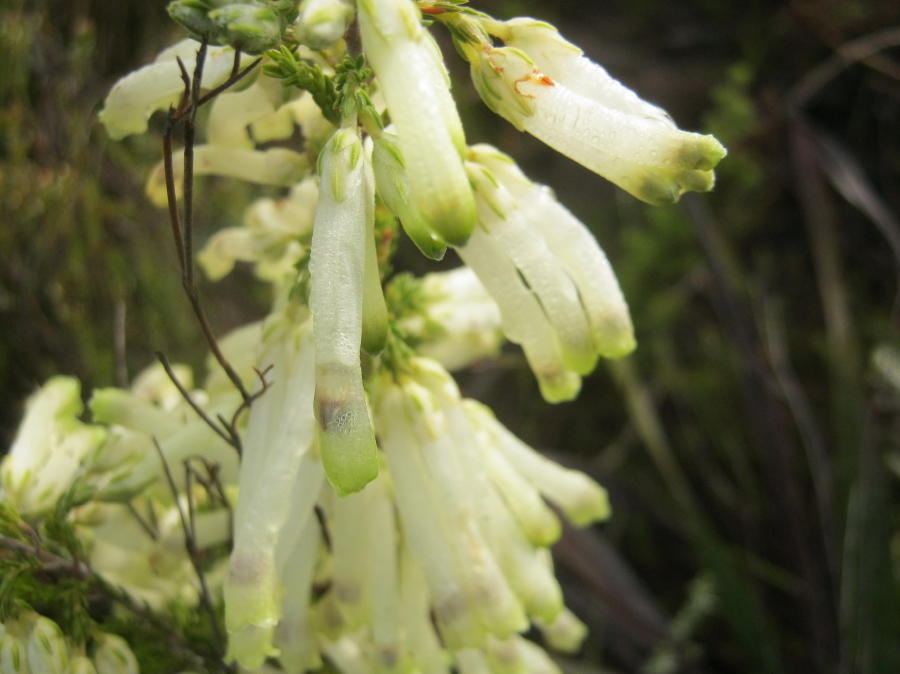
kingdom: Plantae
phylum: Tracheophyta
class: Magnoliopsida
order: Ericales
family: Ericaceae
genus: Erica
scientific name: Erica discolor
